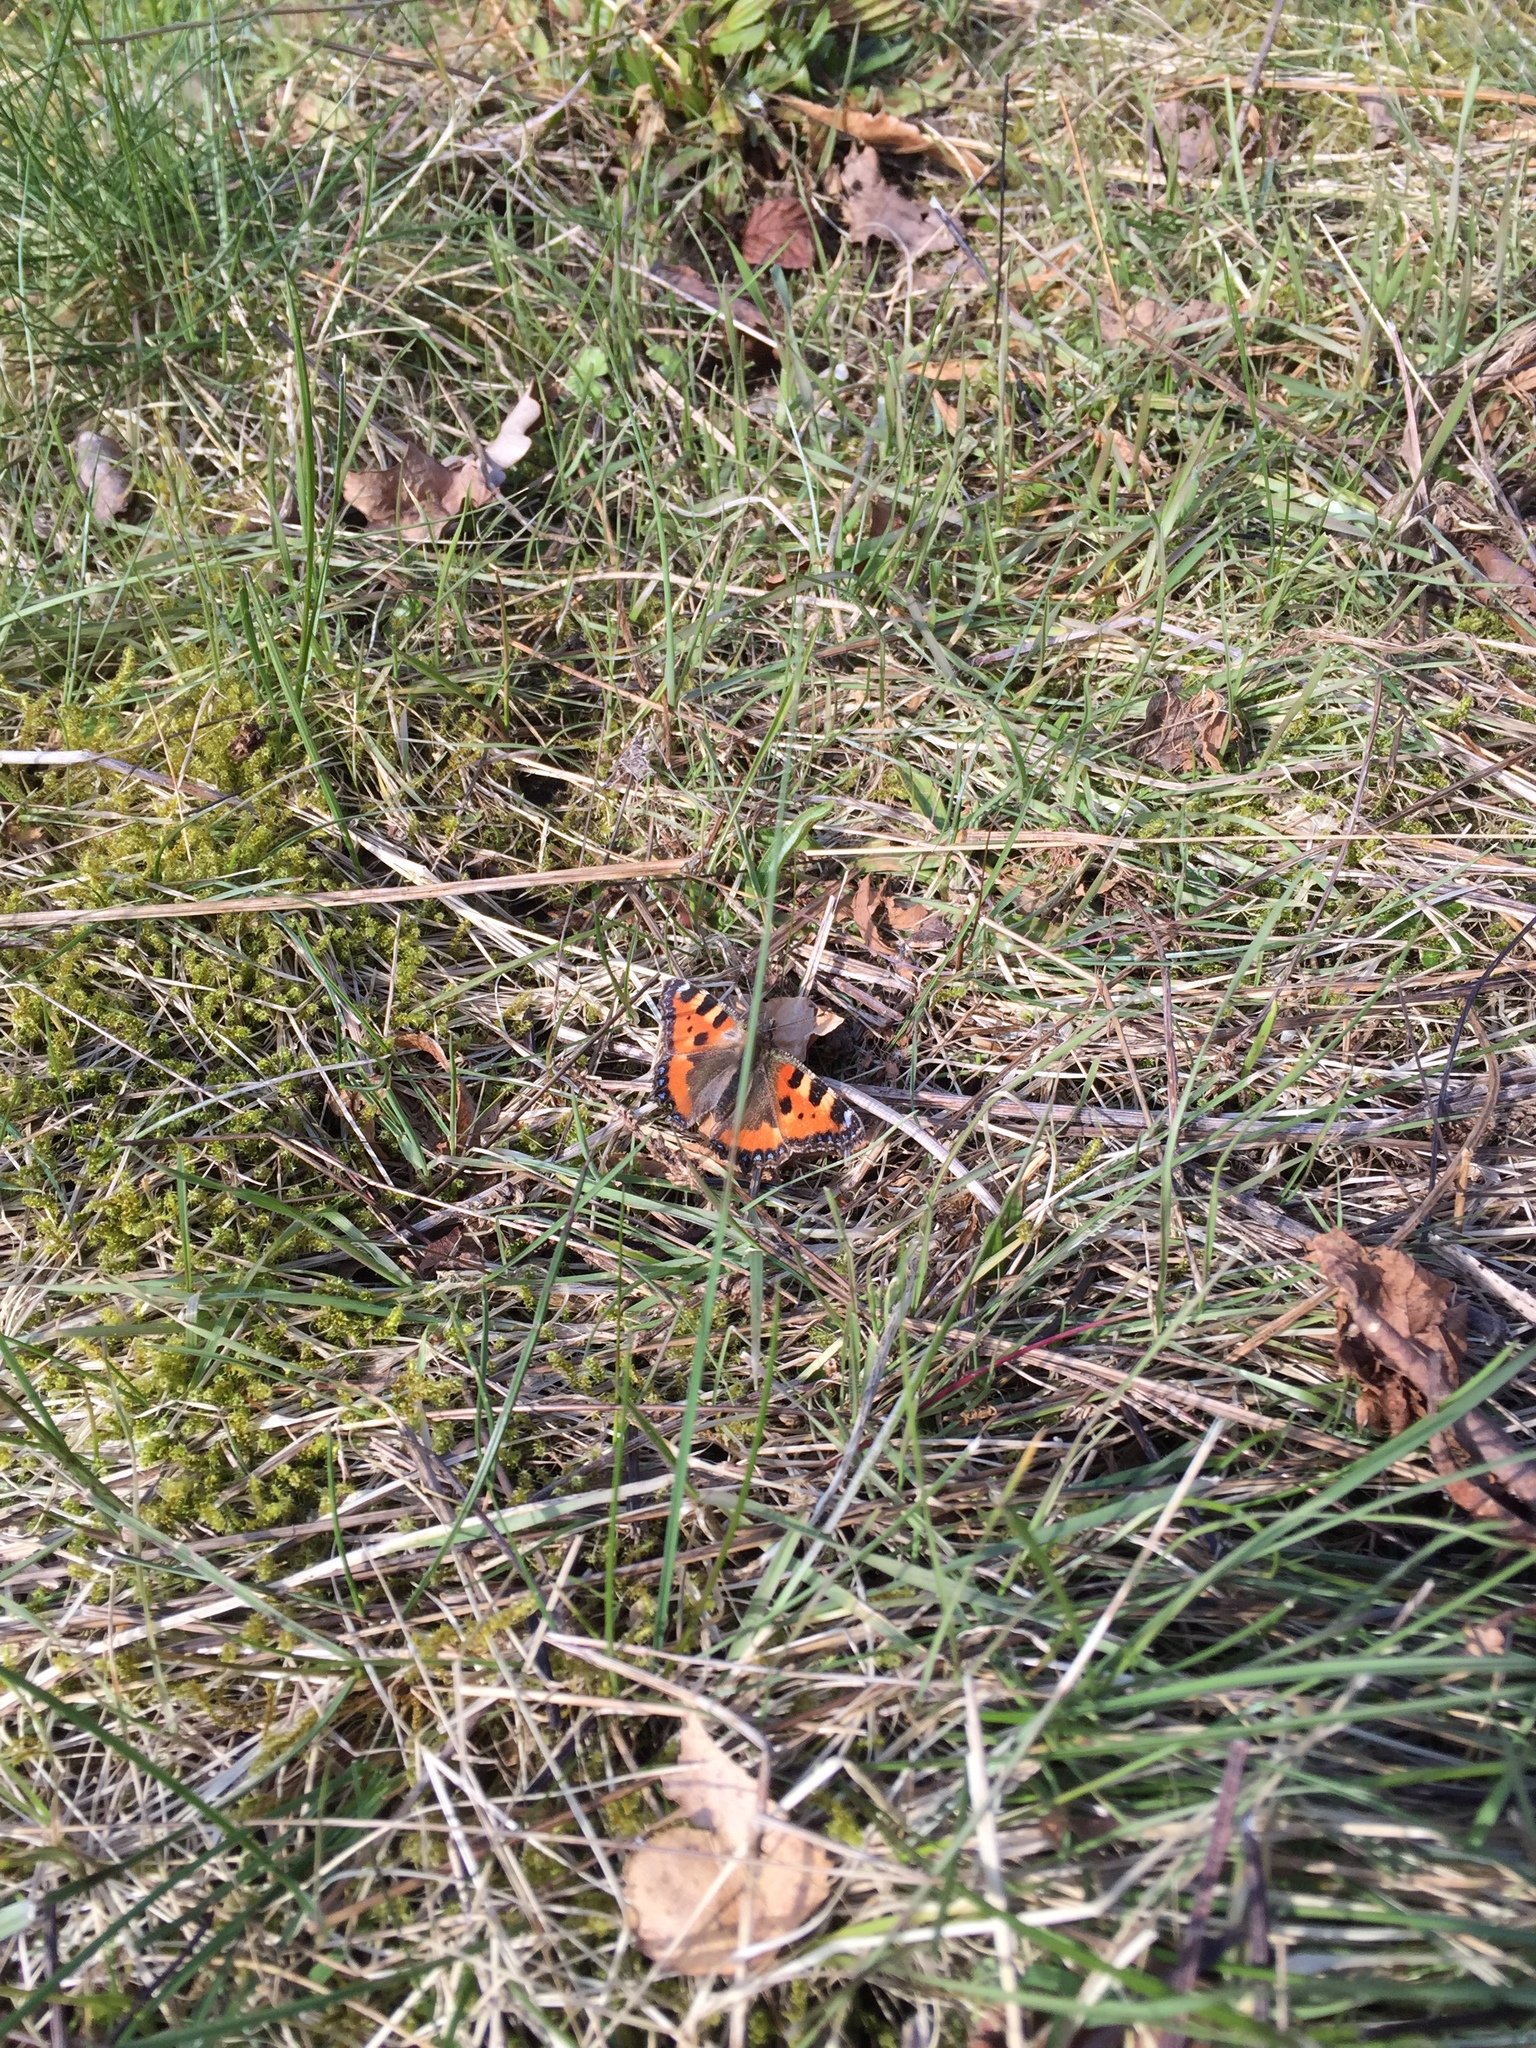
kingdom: Animalia
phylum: Arthropoda
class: Insecta
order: Lepidoptera
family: Nymphalidae
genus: Aglais
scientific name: Aglais urticae
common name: Small tortoiseshell
